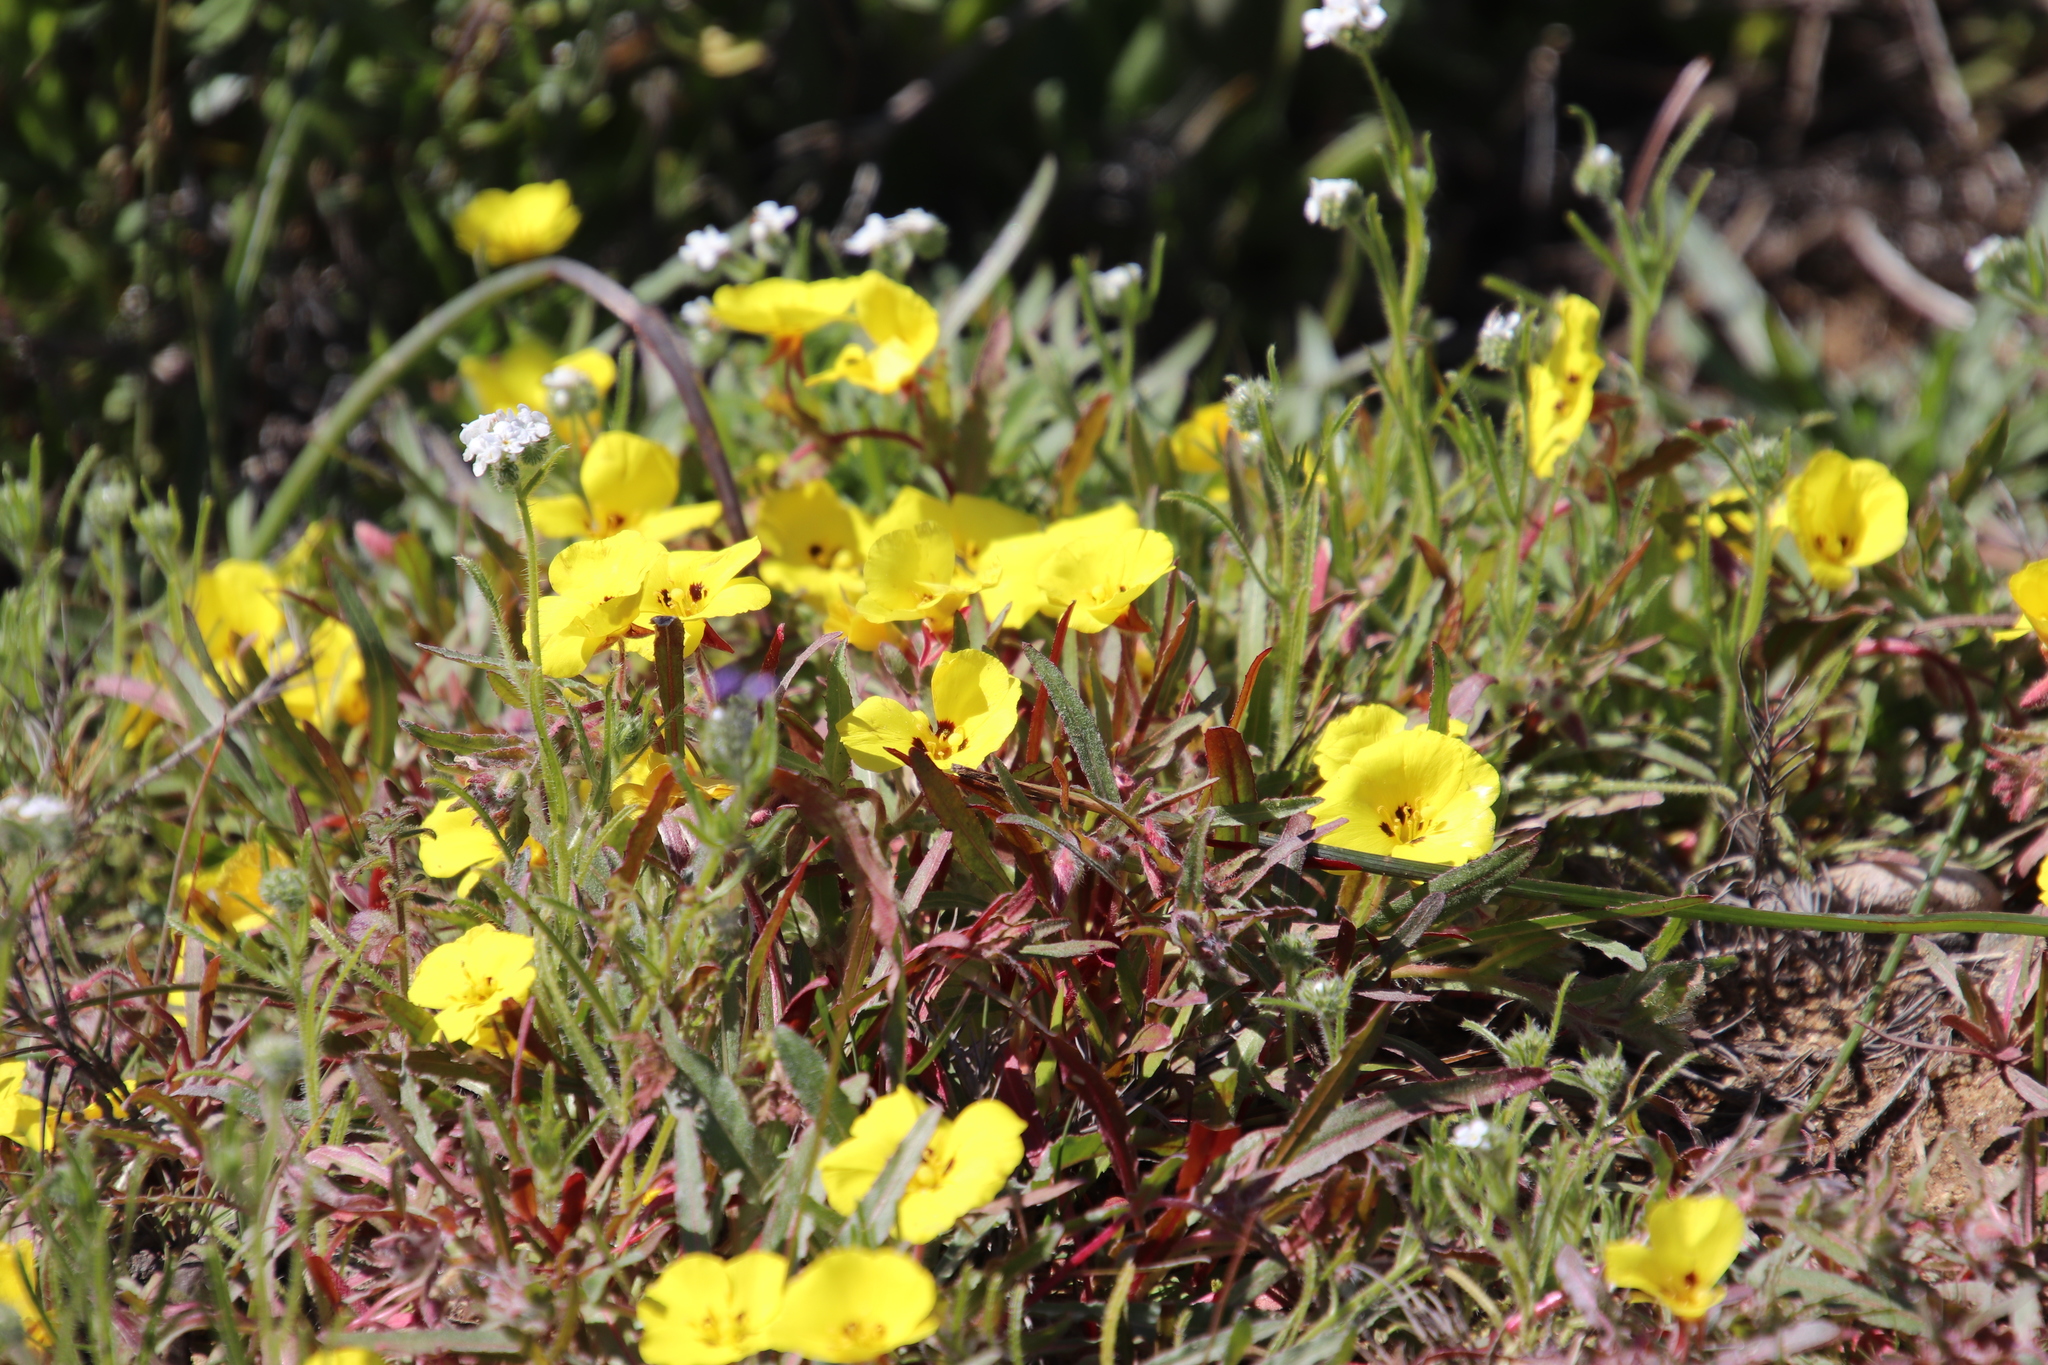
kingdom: Plantae
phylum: Tracheophyta
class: Magnoliopsida
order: Myrtales
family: Onagraceae
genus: Camissoniopsis
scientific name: Camissoniopsis bistorta
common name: Southern suncup
